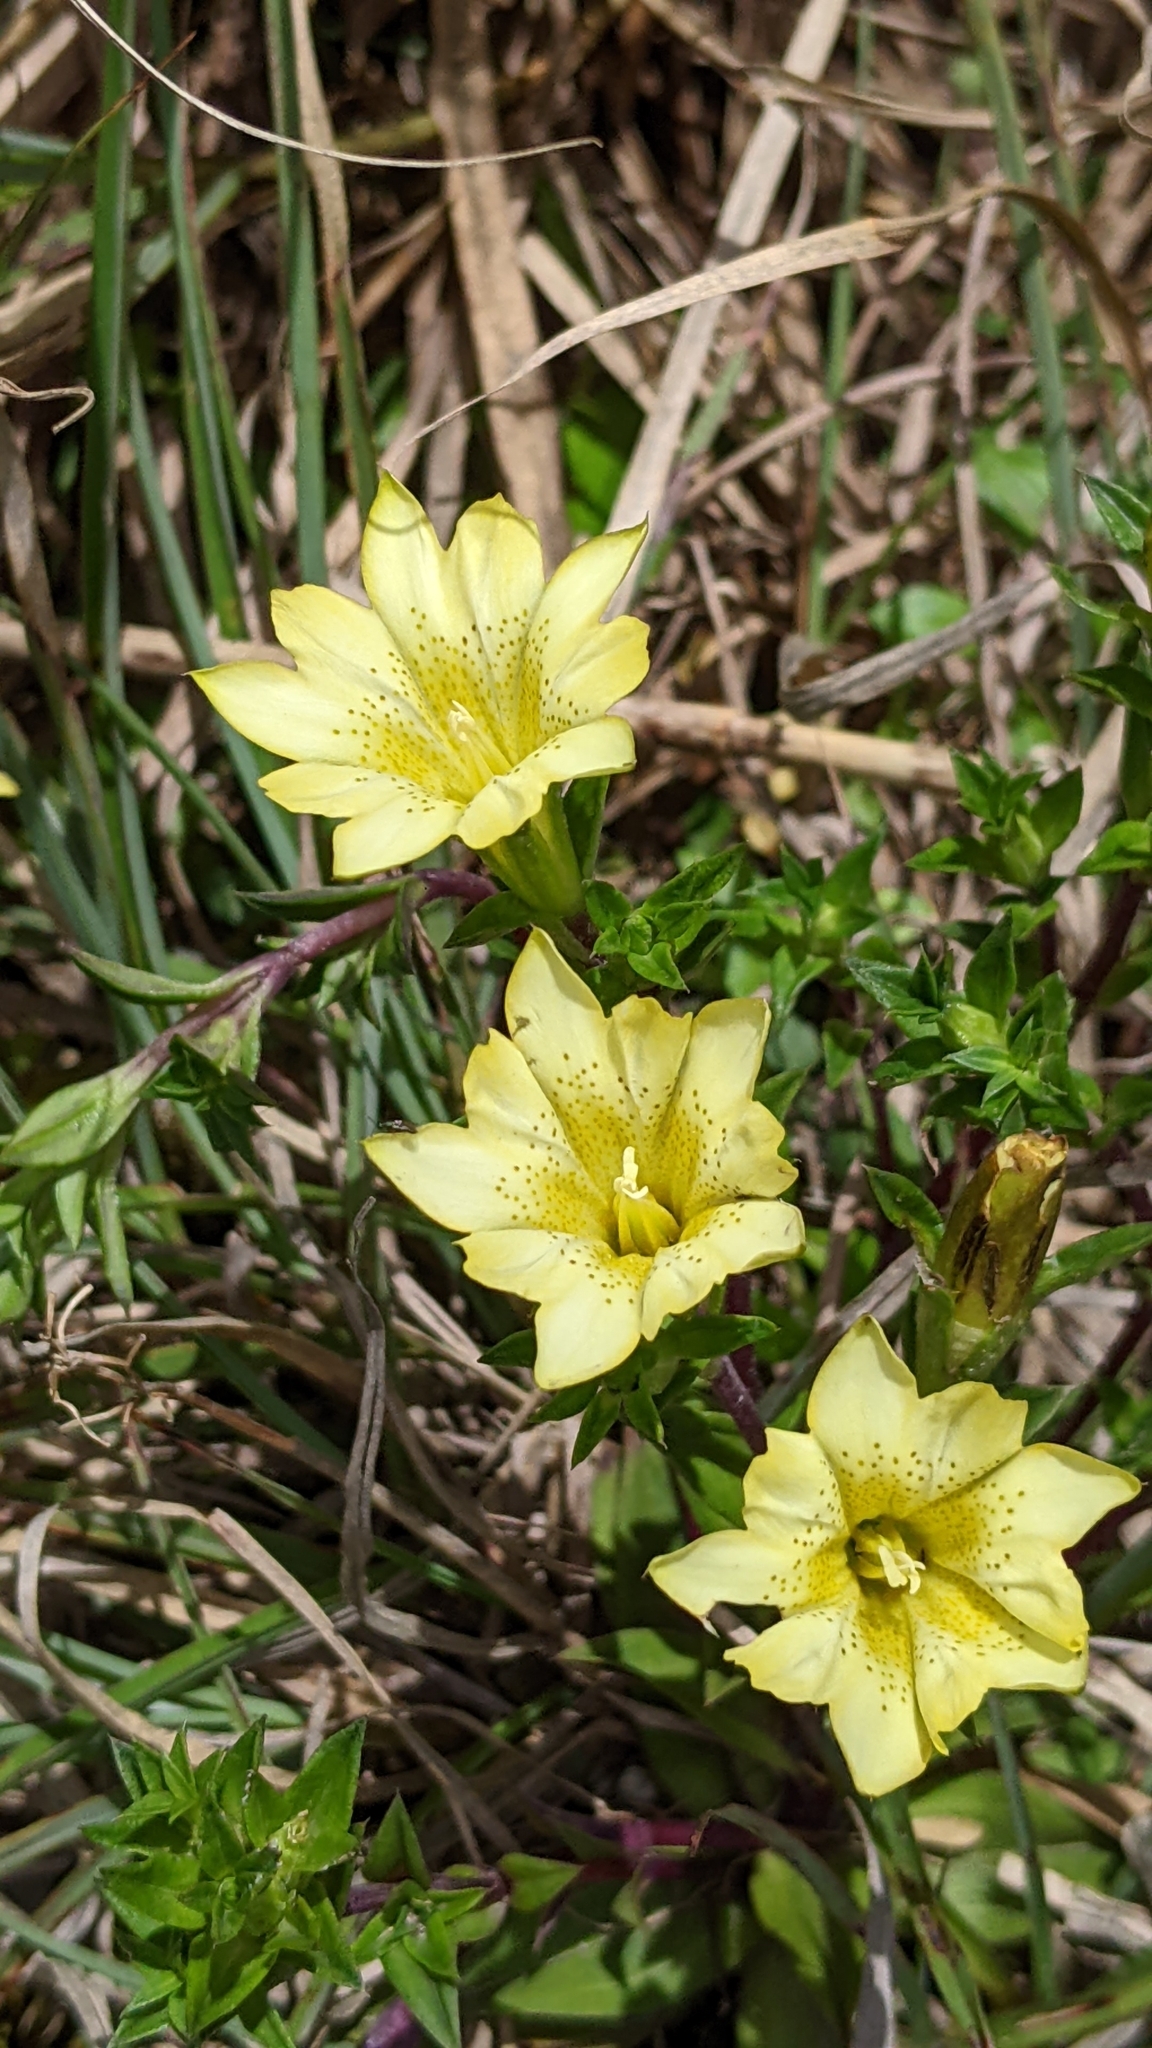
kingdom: Plantae
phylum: Tracheophyta
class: Magnoliopsida
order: Gentianales
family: Gentianaceae
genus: Gentiana
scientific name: Gentiana scabrida
